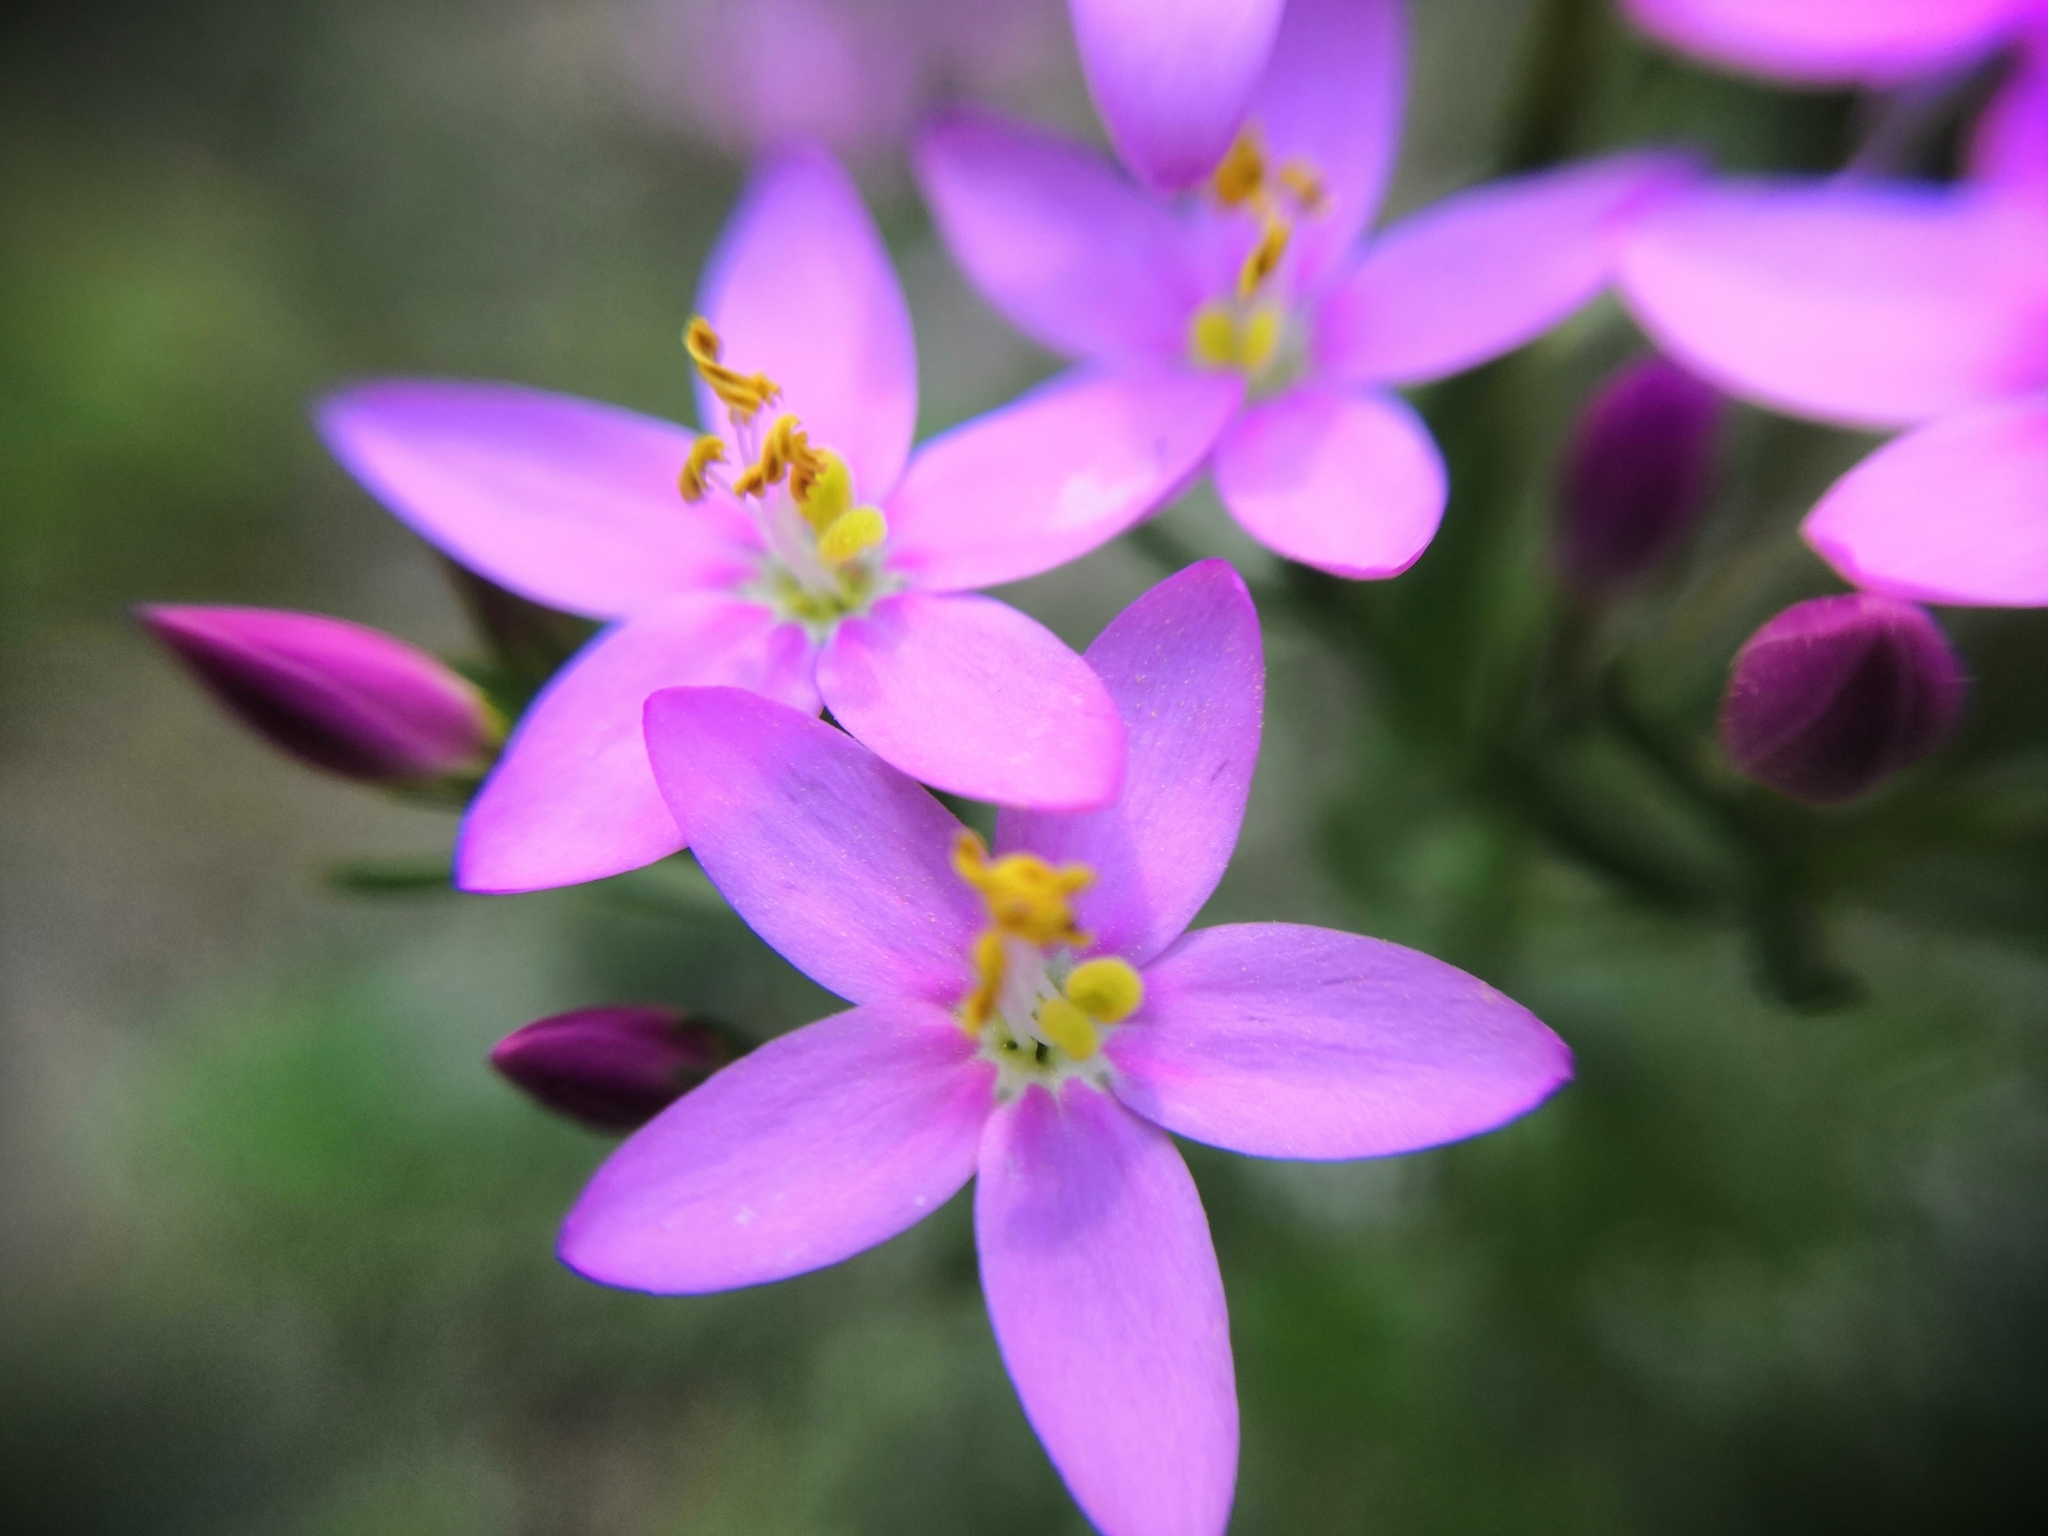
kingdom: Plantae
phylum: Tracheophyta
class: Magnoliopsida
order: Gentianales
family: Gentianaceae
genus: Centaurium
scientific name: Centaurium erythraea
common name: Common centaury
